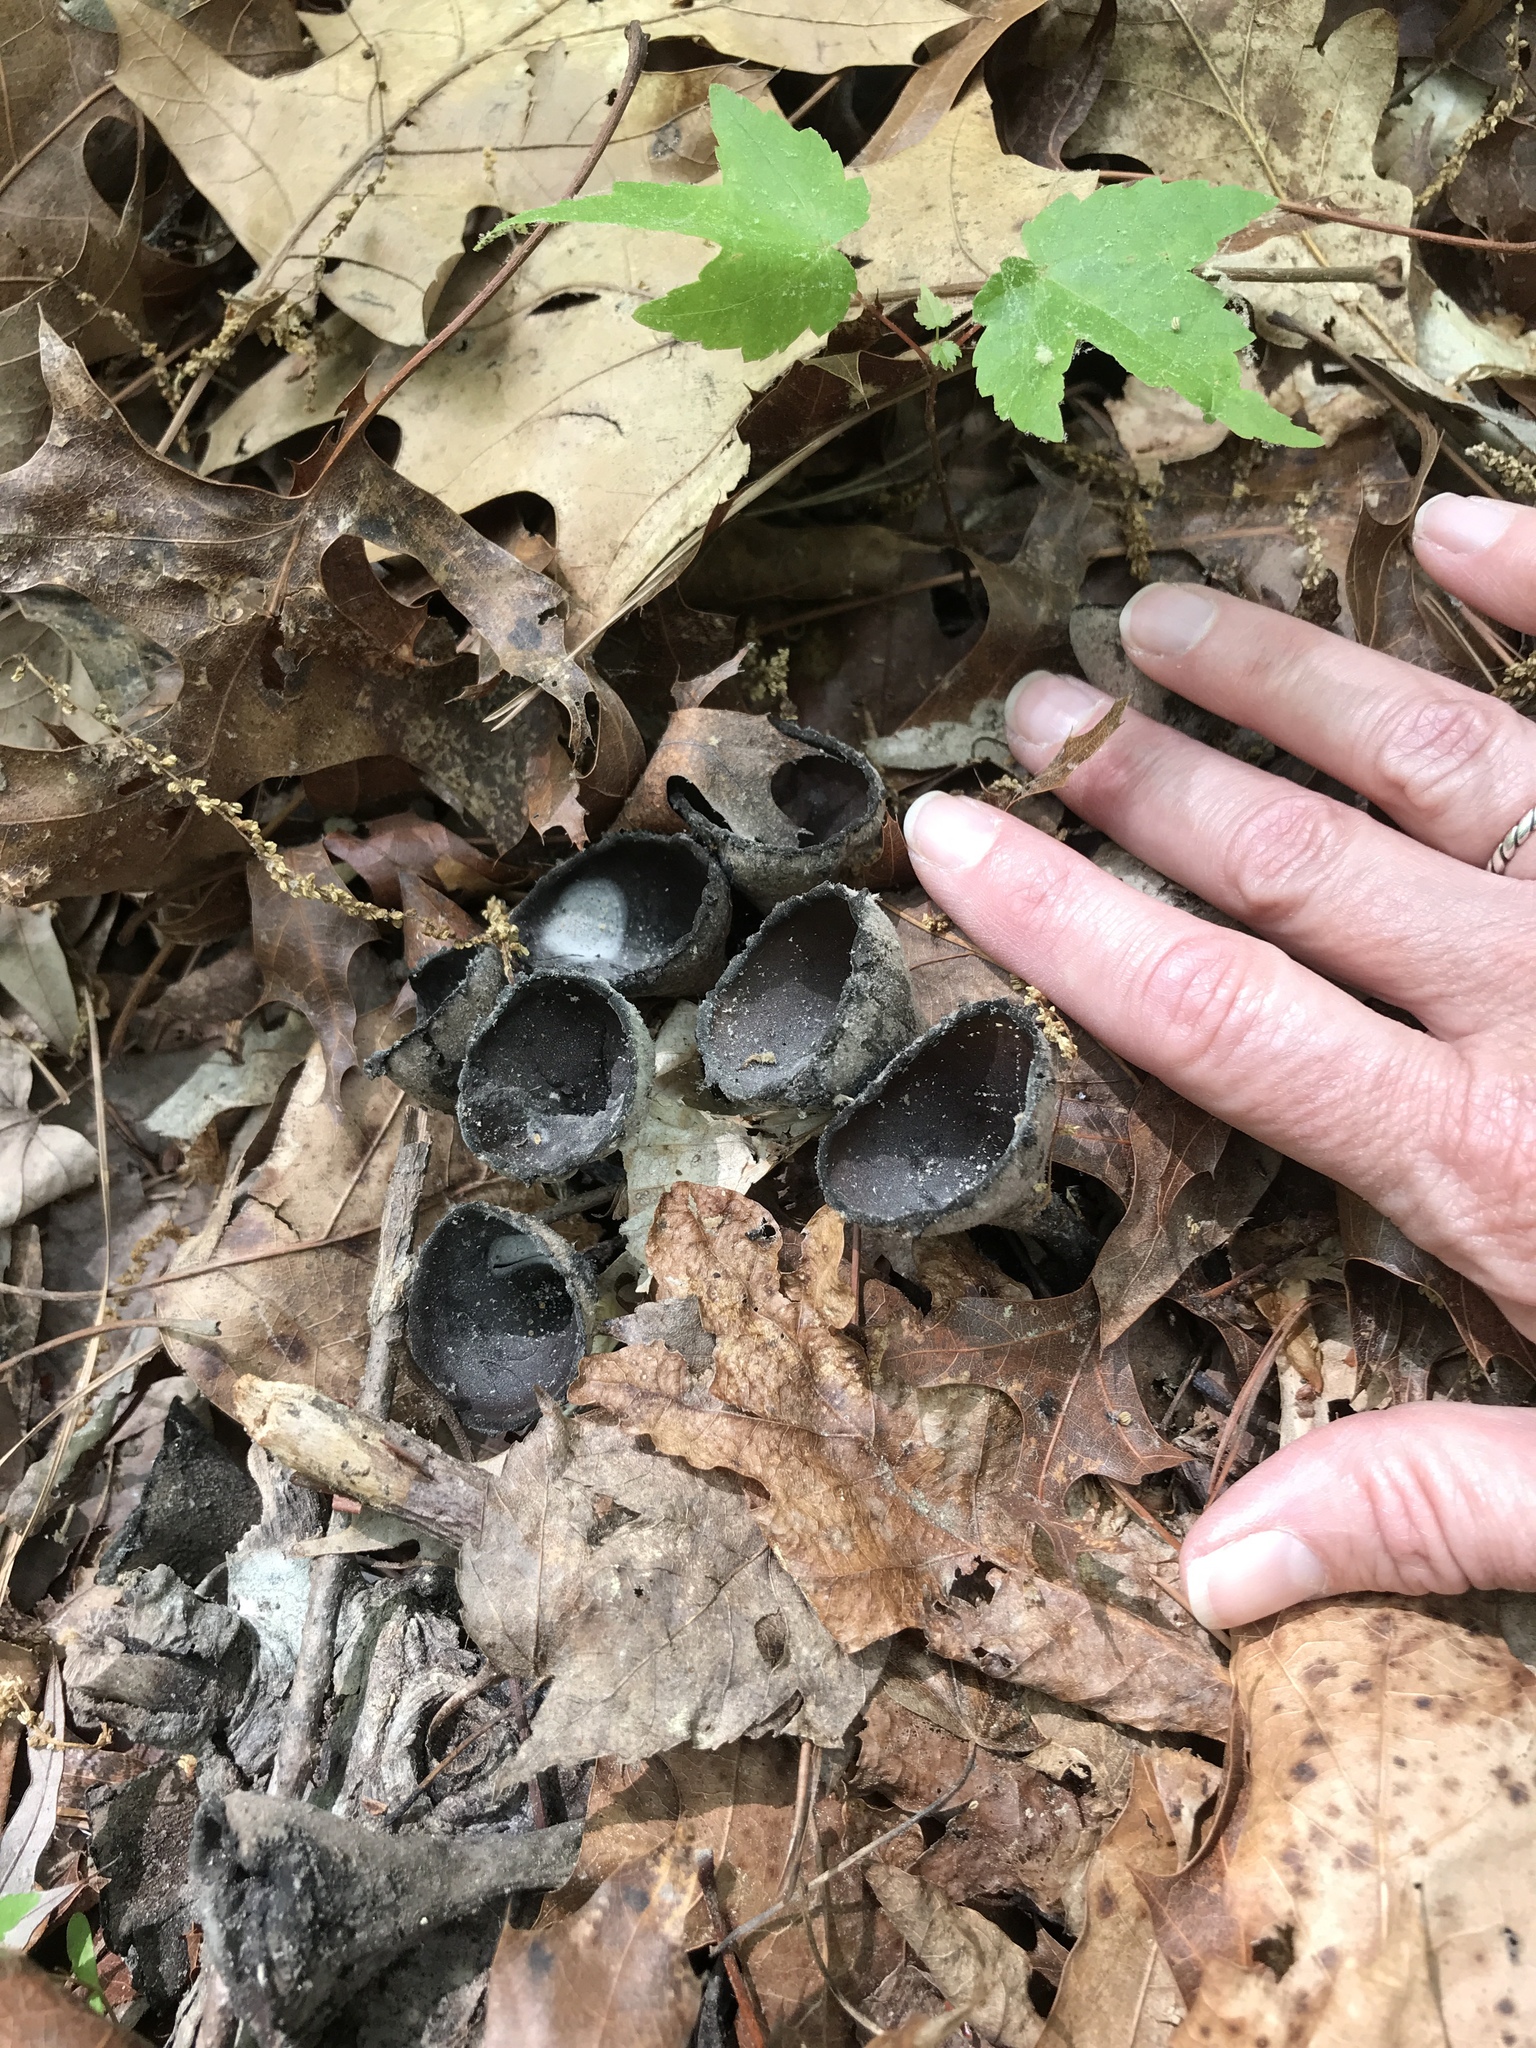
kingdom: Fungi
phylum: Ascomycota
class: Pezizomycetes
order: Pezizales
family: Sarcosomataceae
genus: Urnula
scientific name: Urnula craterium
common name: Devil's urn
